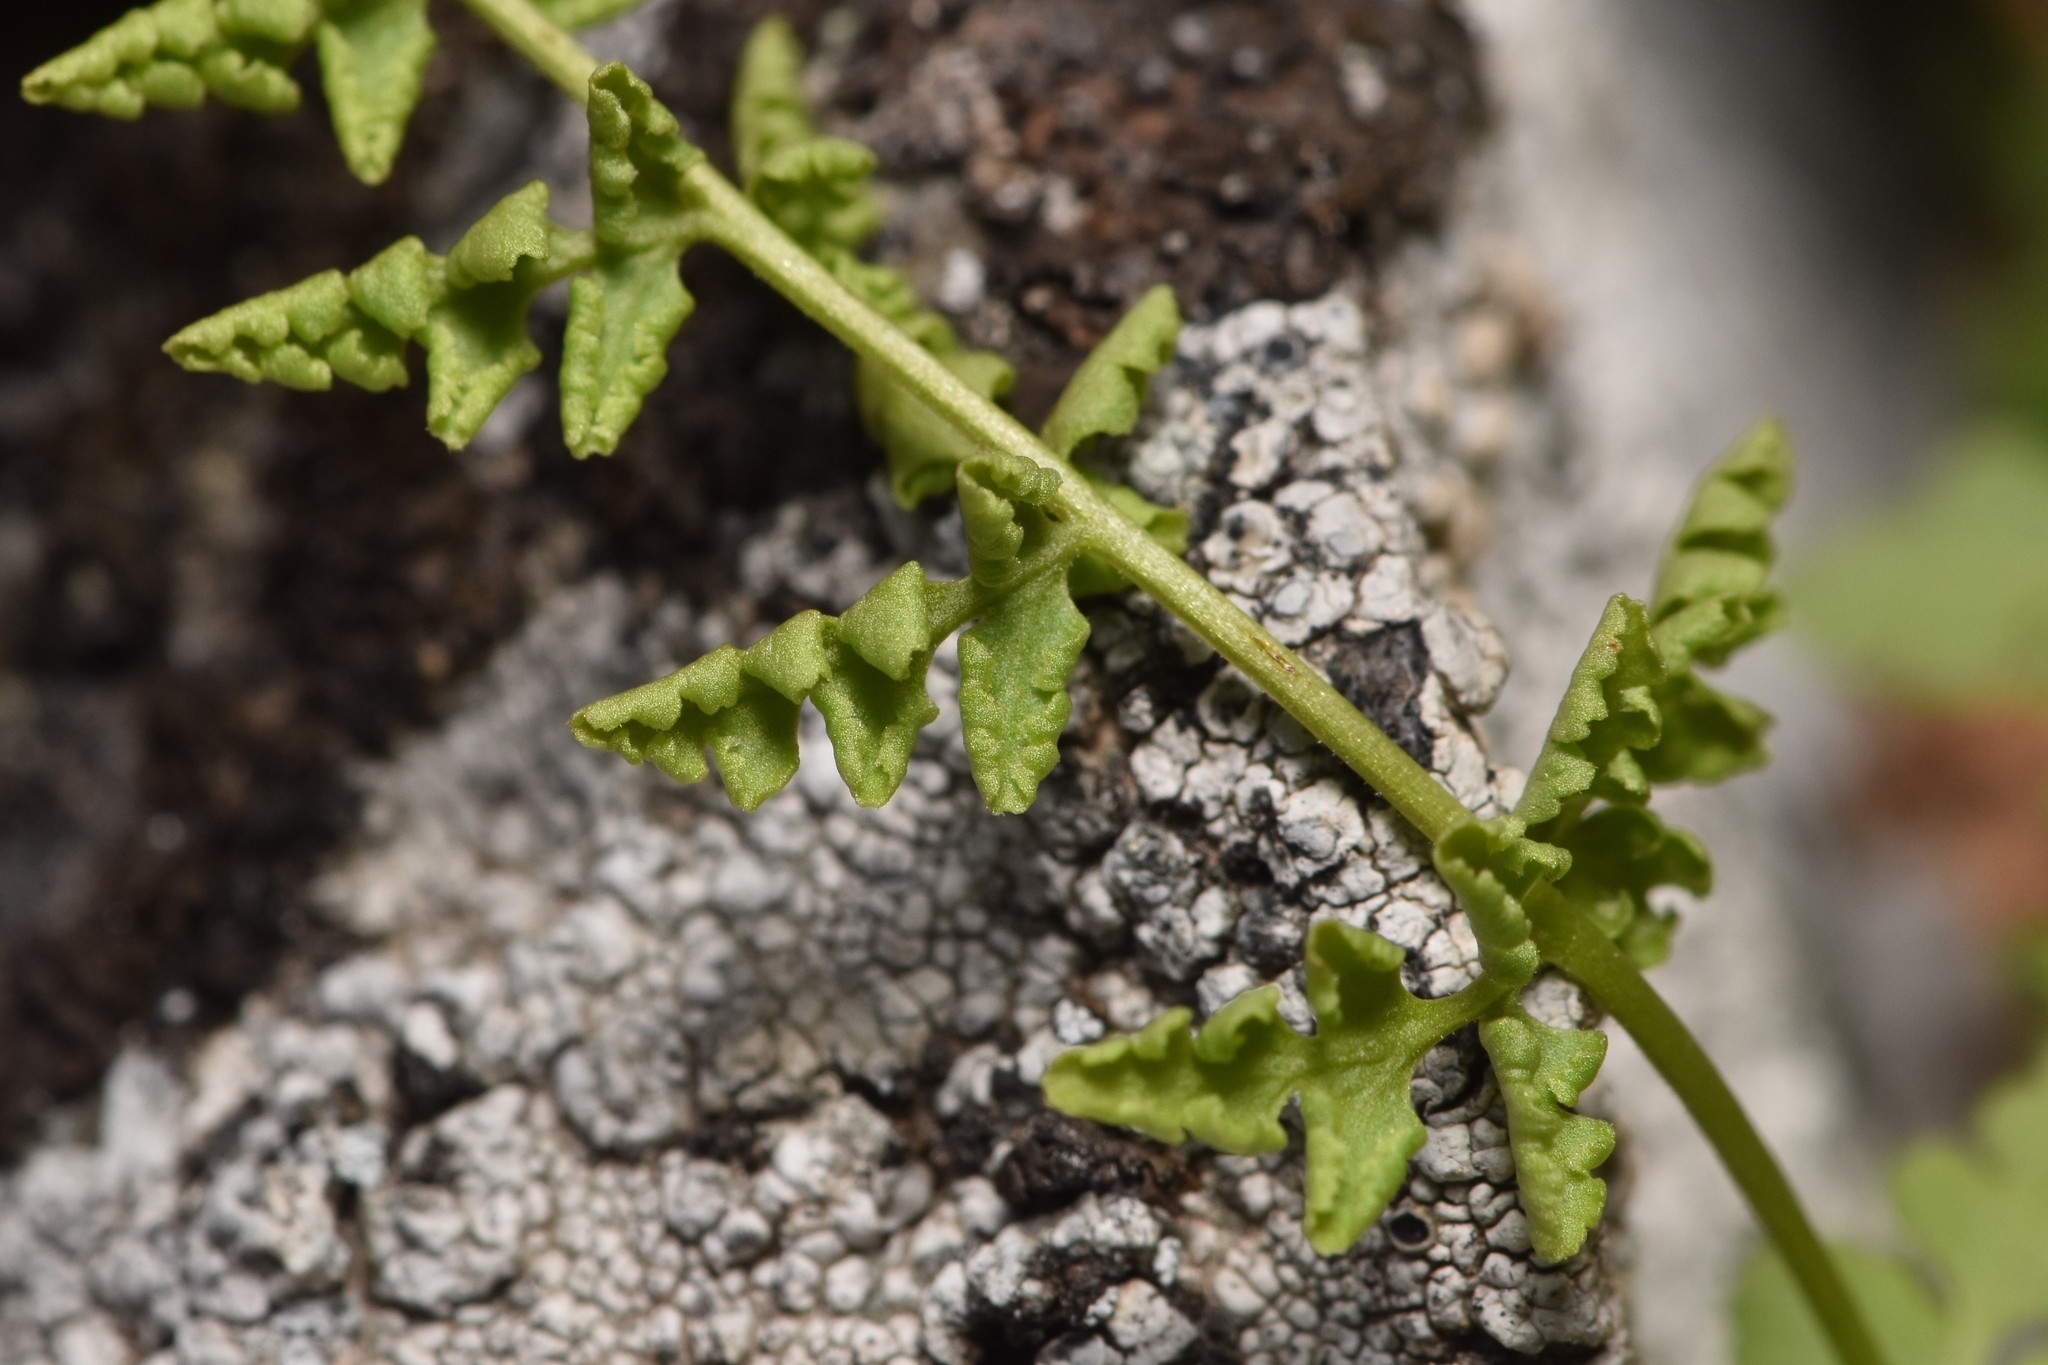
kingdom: Plantae
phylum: Tracheophyta
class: Polypodiopsida
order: Polypodiales
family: Woodsiaceae
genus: Physematium
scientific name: Physematium oreganum
